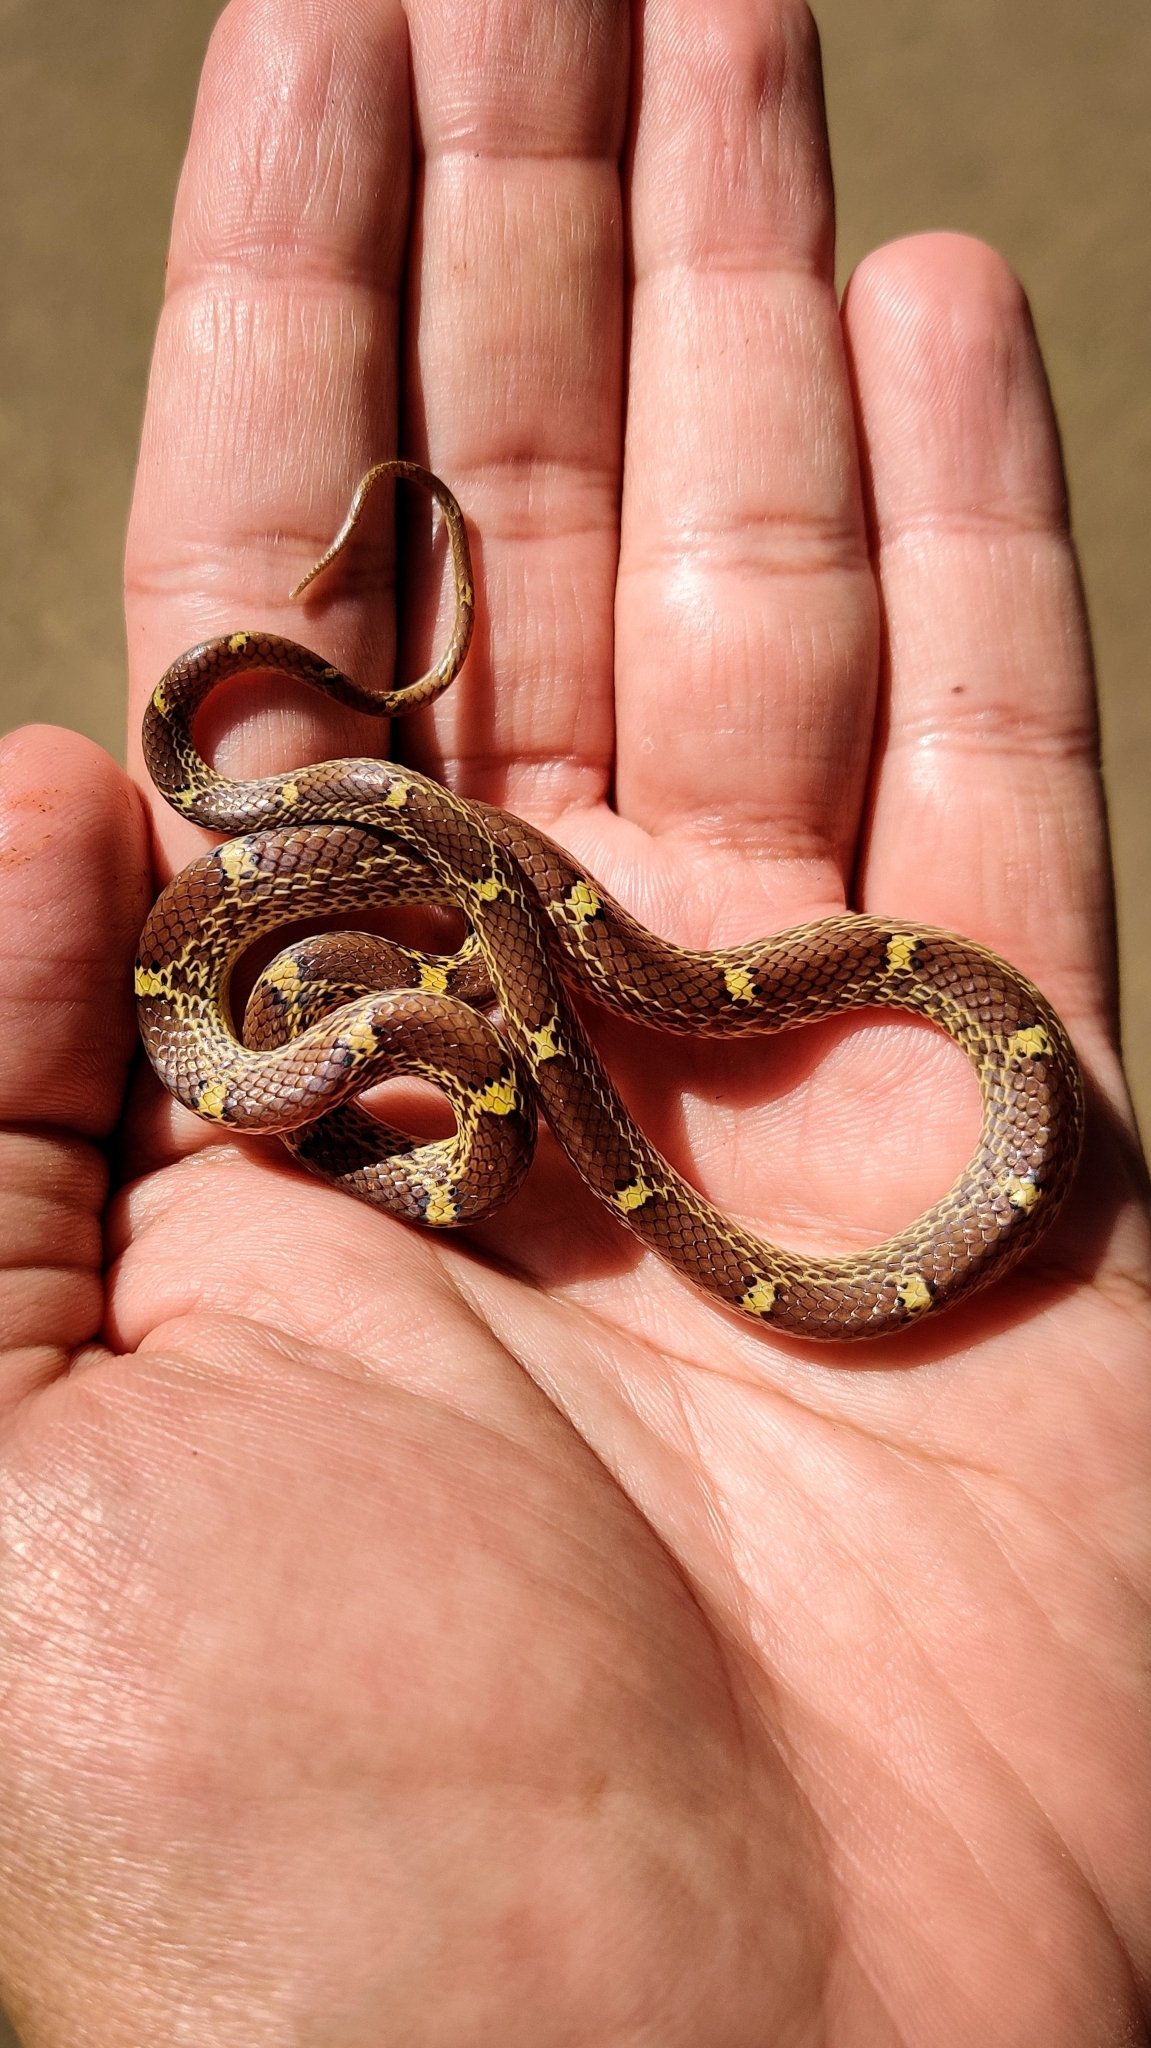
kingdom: Animalia
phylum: Chordata
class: Squamata
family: Colubridae
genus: Lycodon
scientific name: Lycodon fasciolatus
